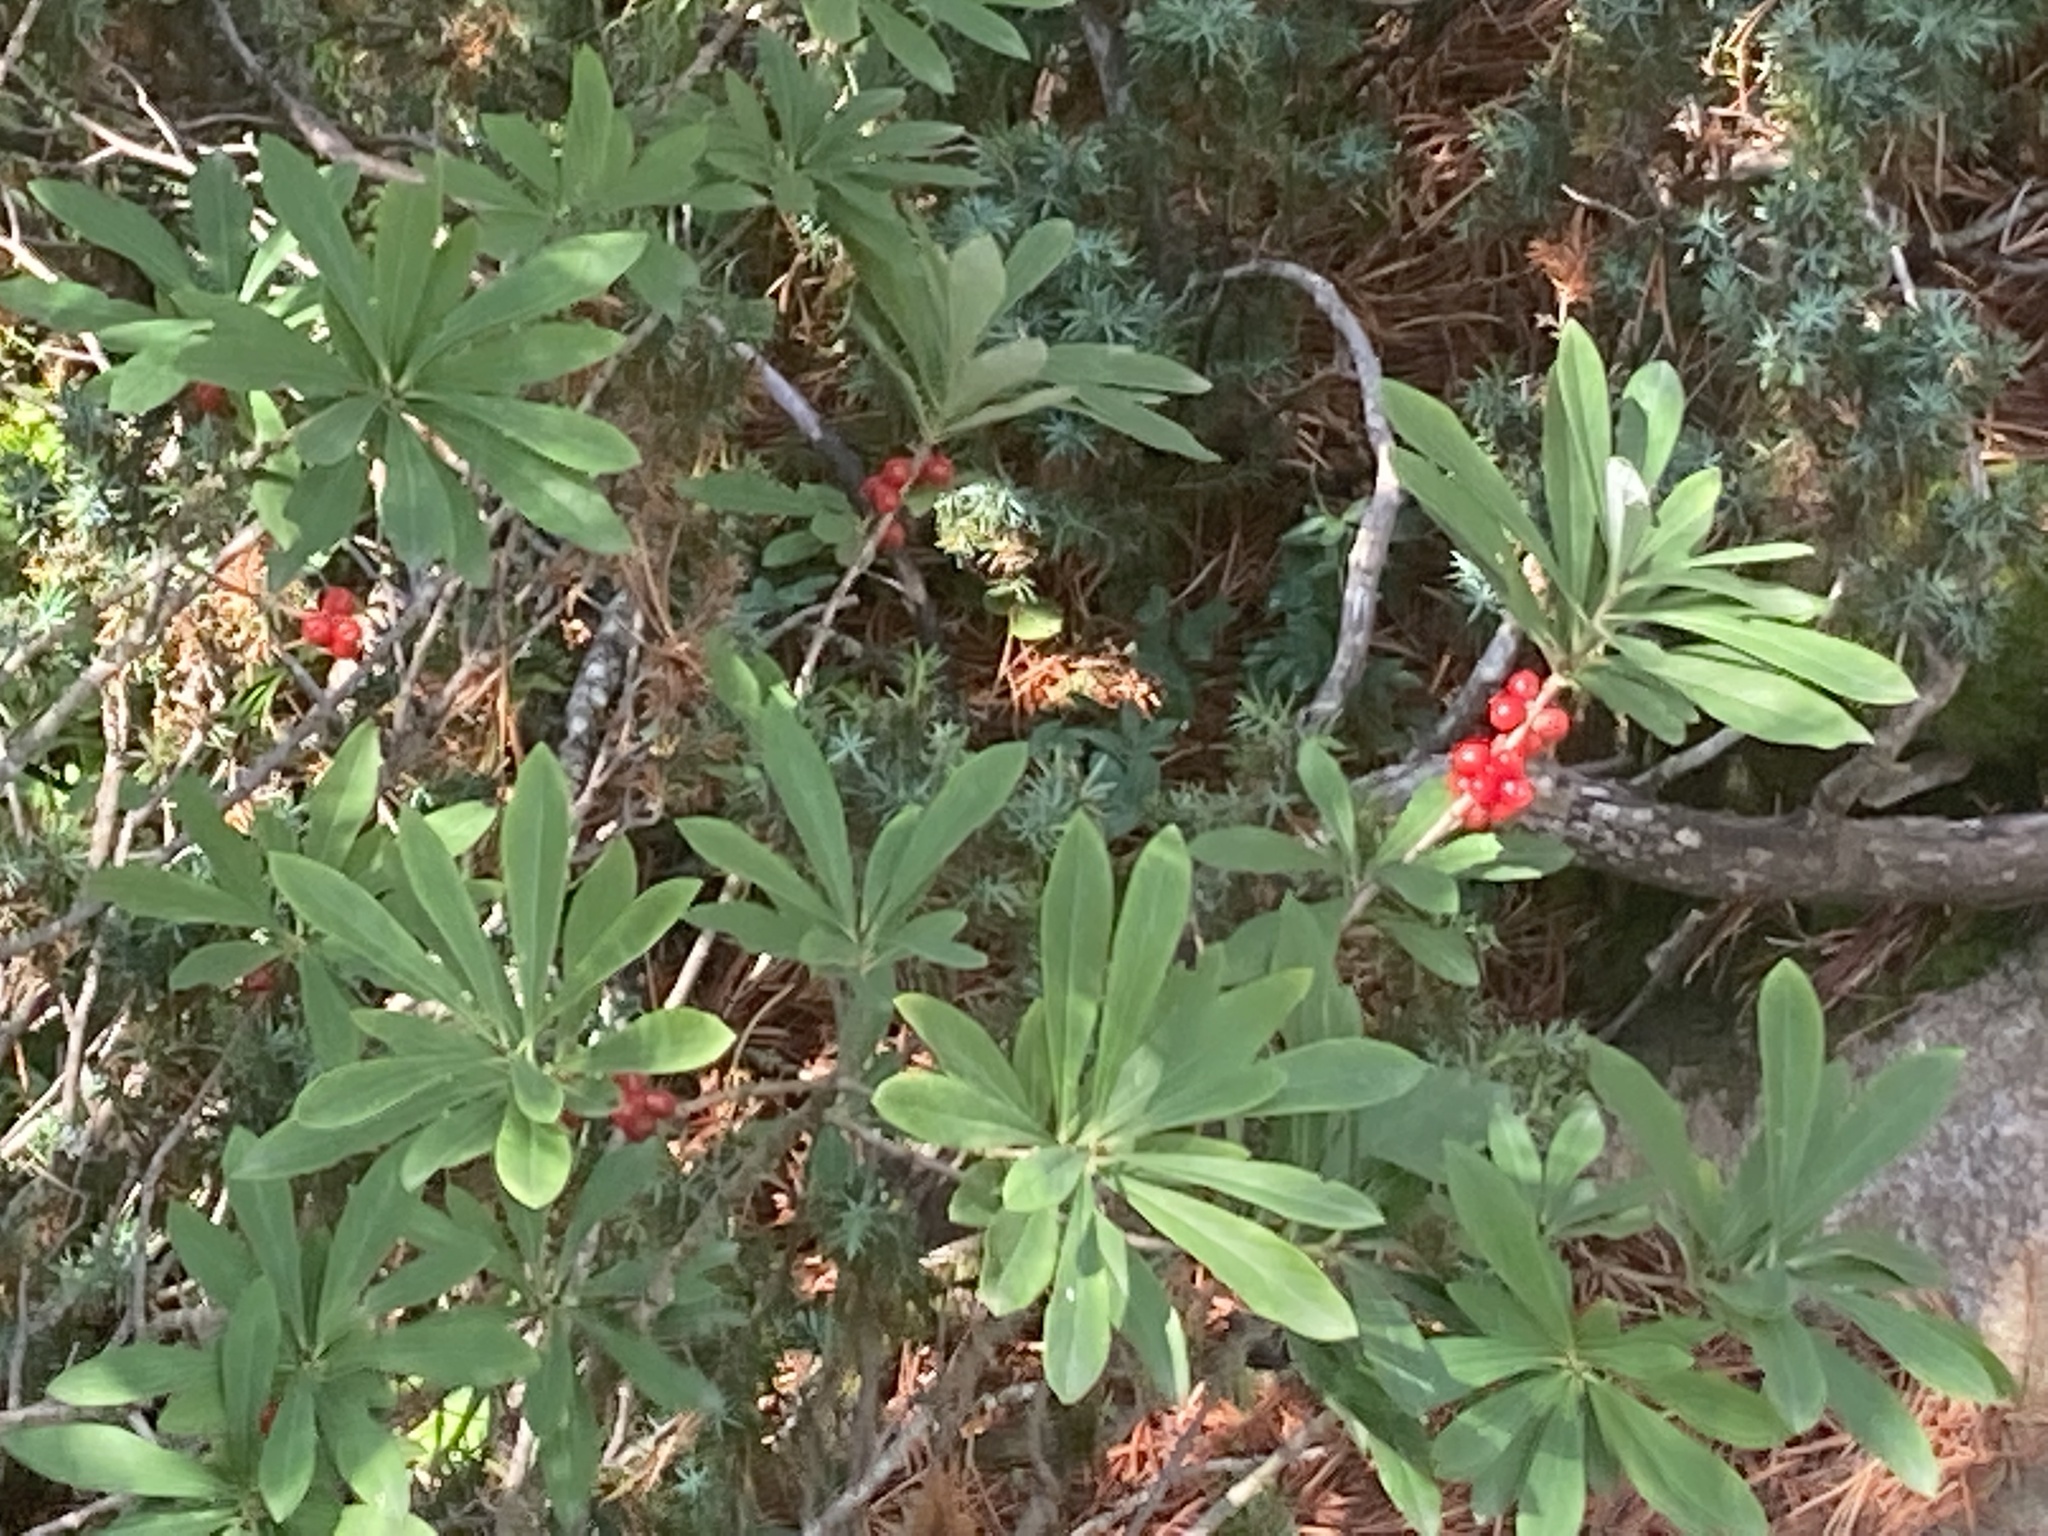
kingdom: Plantae
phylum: Tracheophyta
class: Magnoliopsida
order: Malvales
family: Thymelaeaceae
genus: Daphne
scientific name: Daphne mezereum
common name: Mezereon
